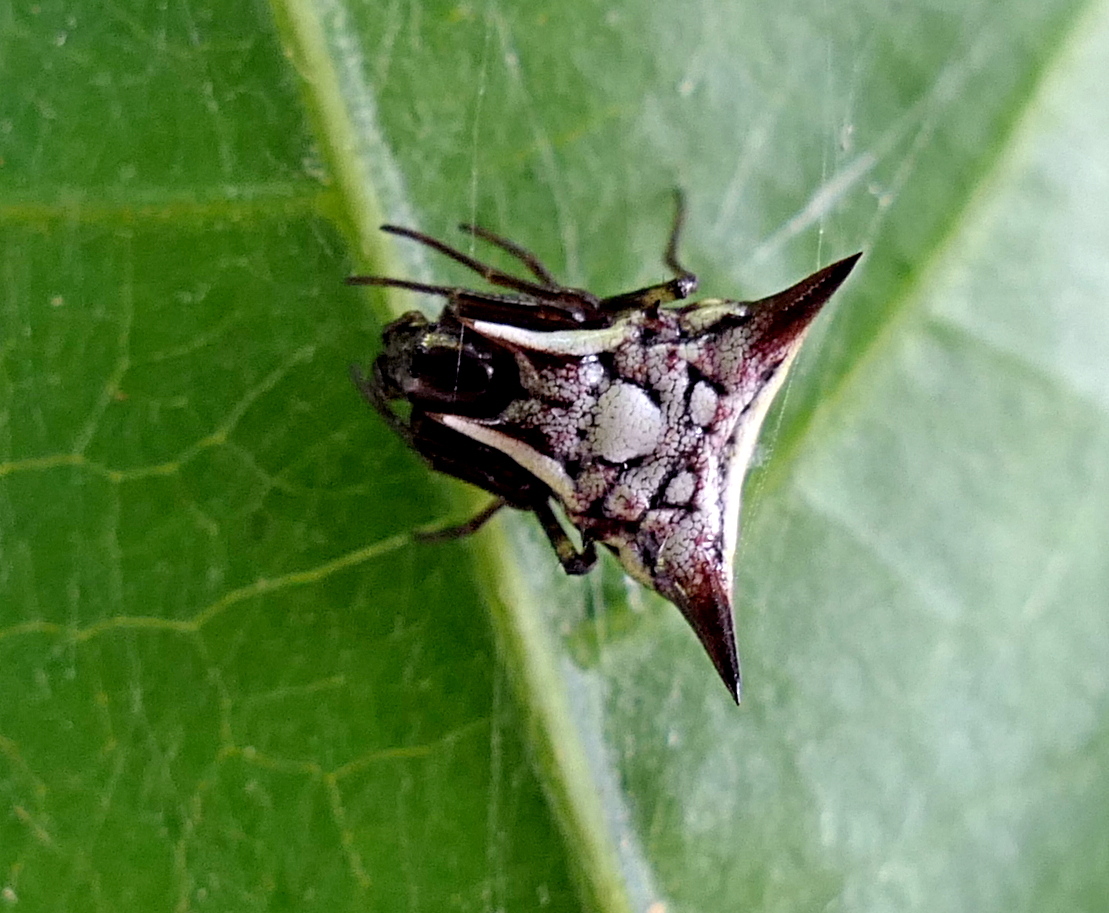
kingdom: Animalia
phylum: Arthropoda
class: Arachnida
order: Araneae
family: Araneidae
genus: Micrathena
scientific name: Micrathena evansi
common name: Orb weavers
